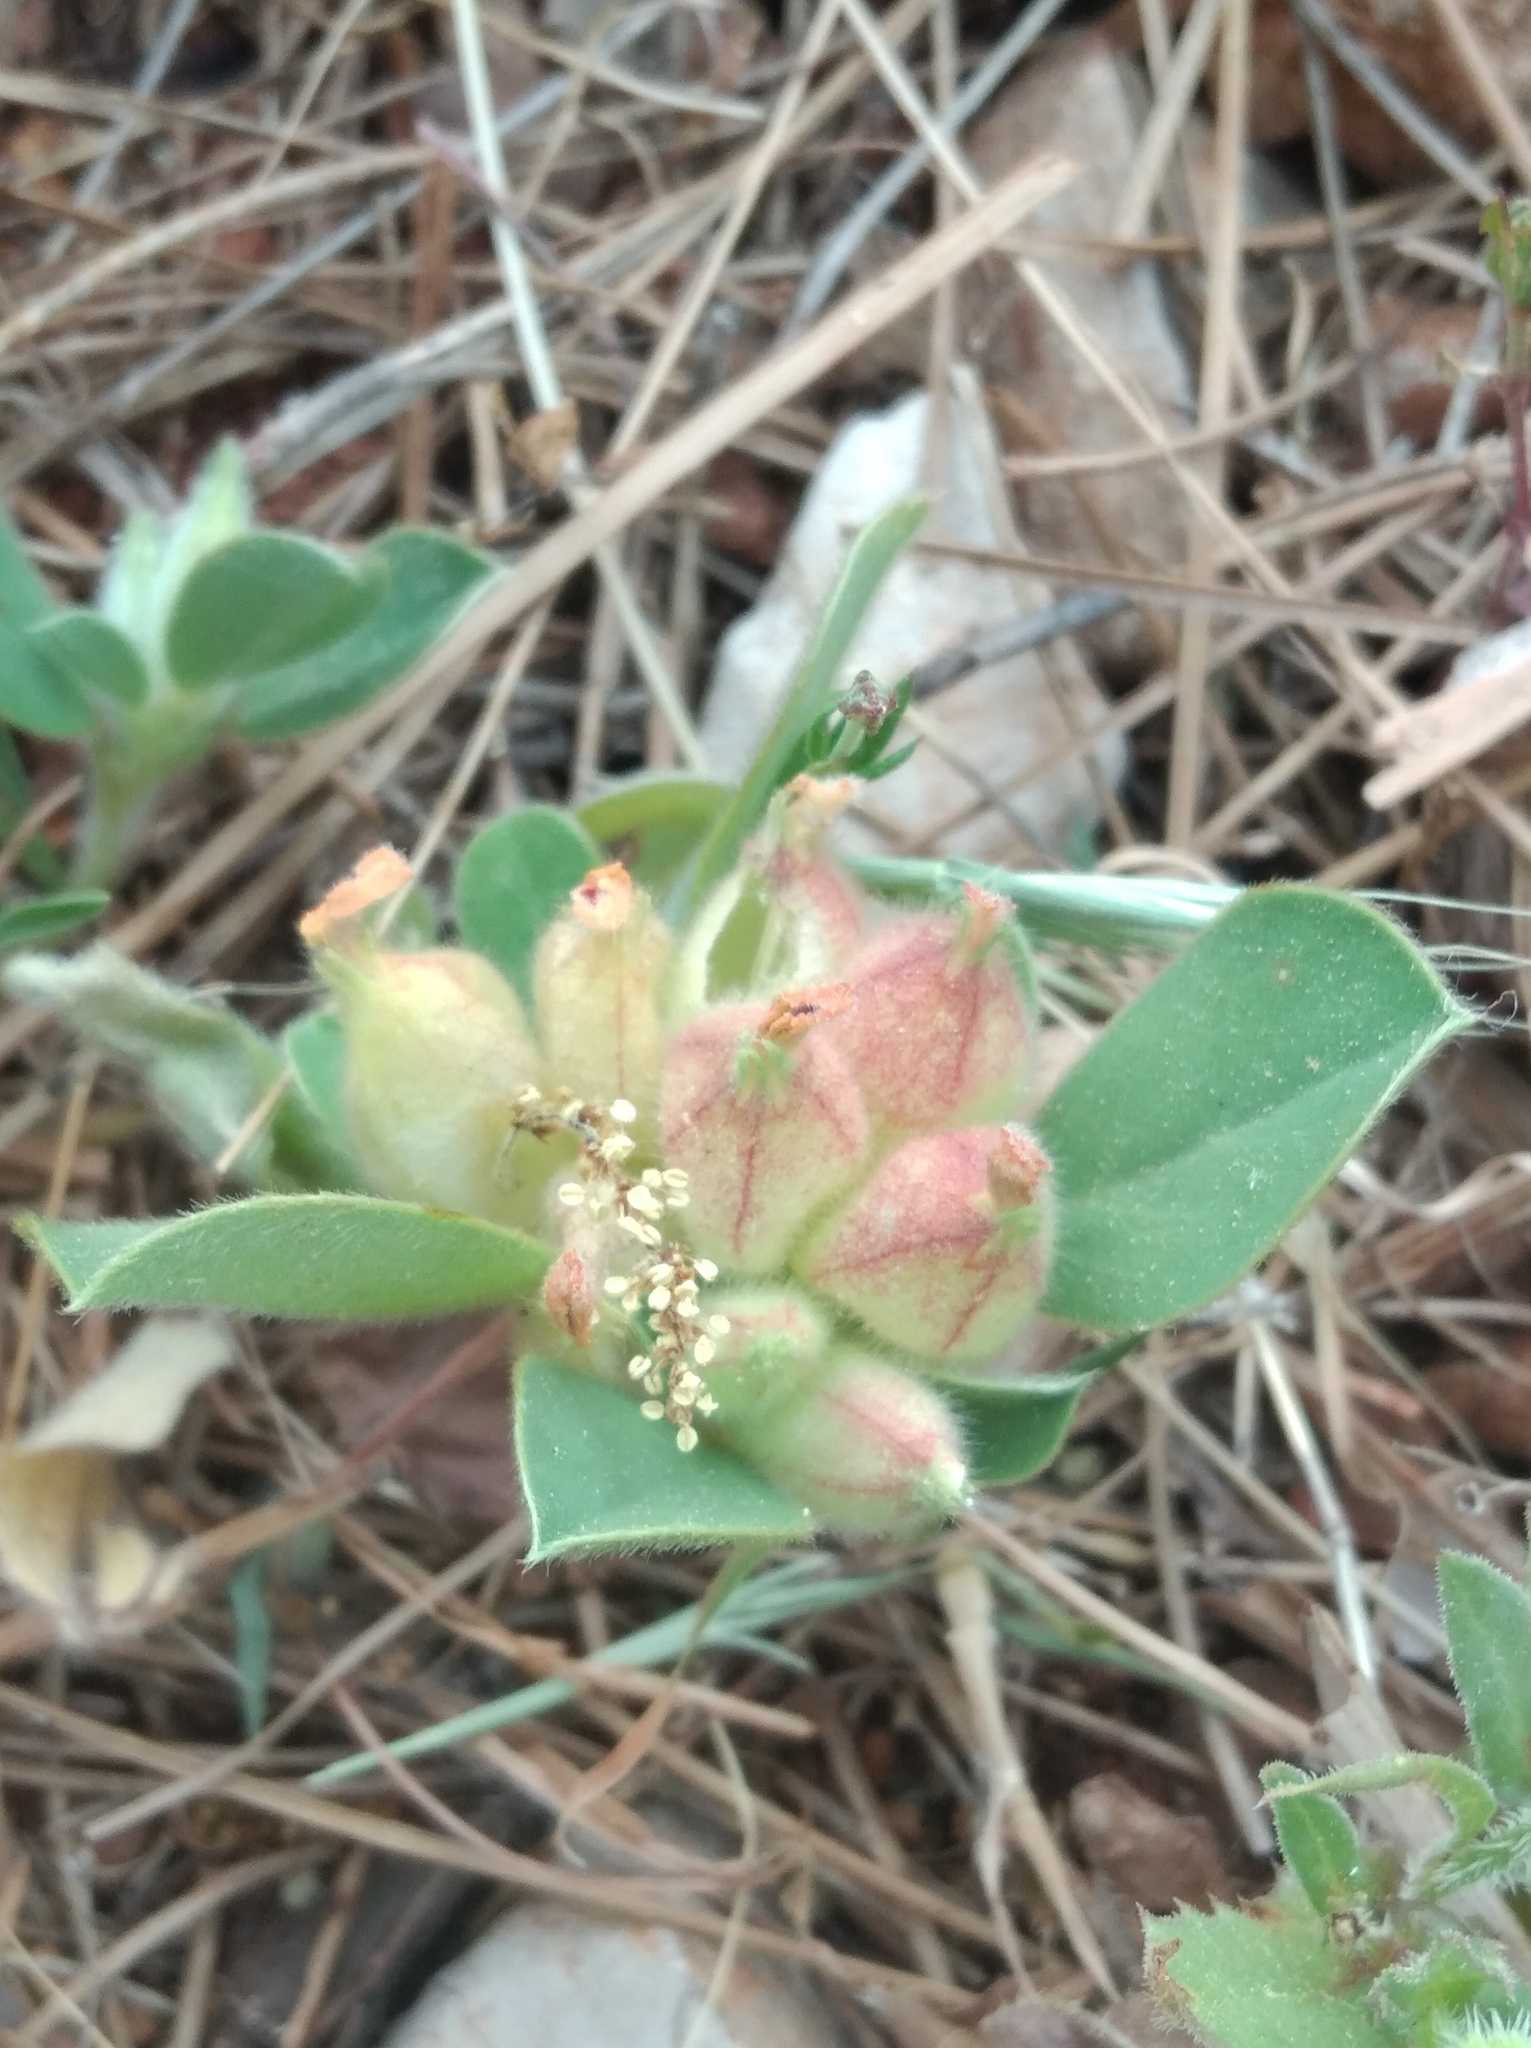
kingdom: Plantae
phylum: Tracheophyta
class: Magnoliopsida
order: Fabales
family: Fabaceae
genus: Tripodion
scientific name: Tripodion tetraphyllum
